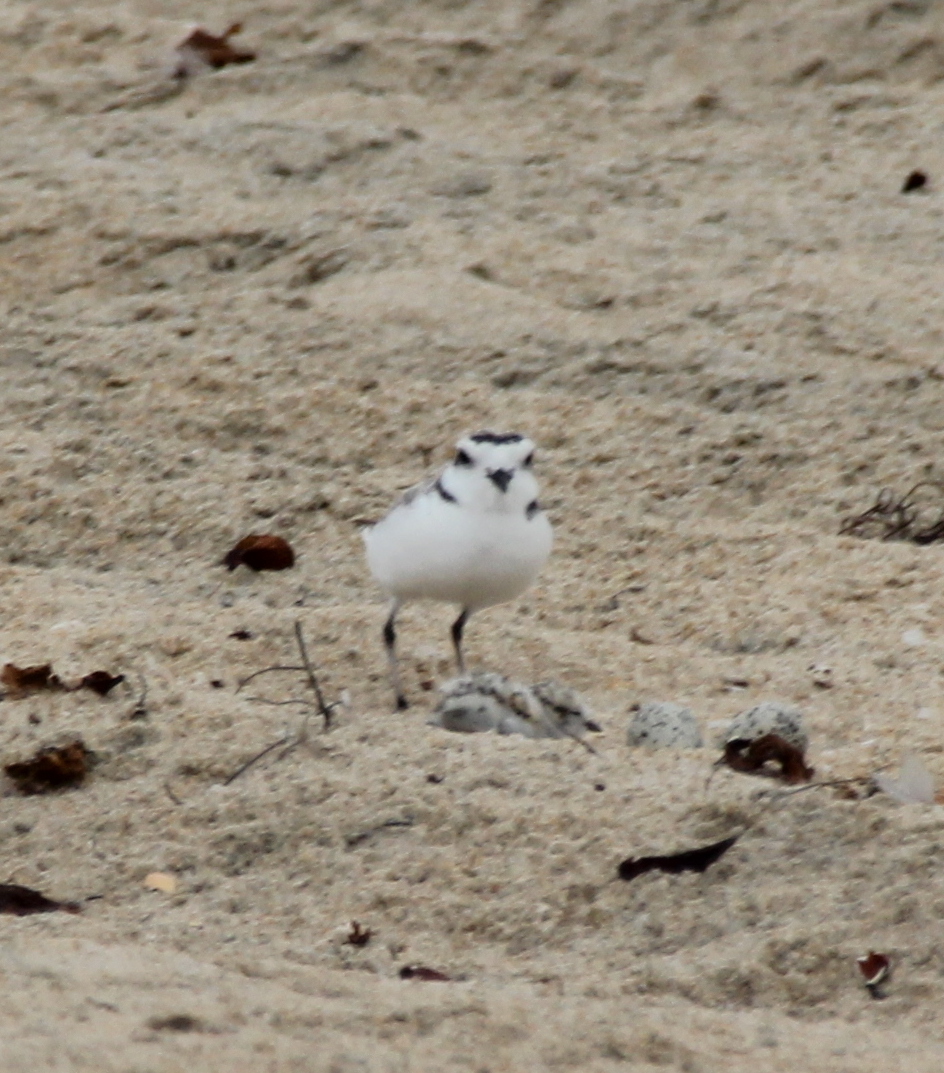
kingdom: Animalia
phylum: Chordata
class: Aves
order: Charadriiformes
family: Charadriidae
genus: Anarhynchus
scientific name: Anarhynchus
